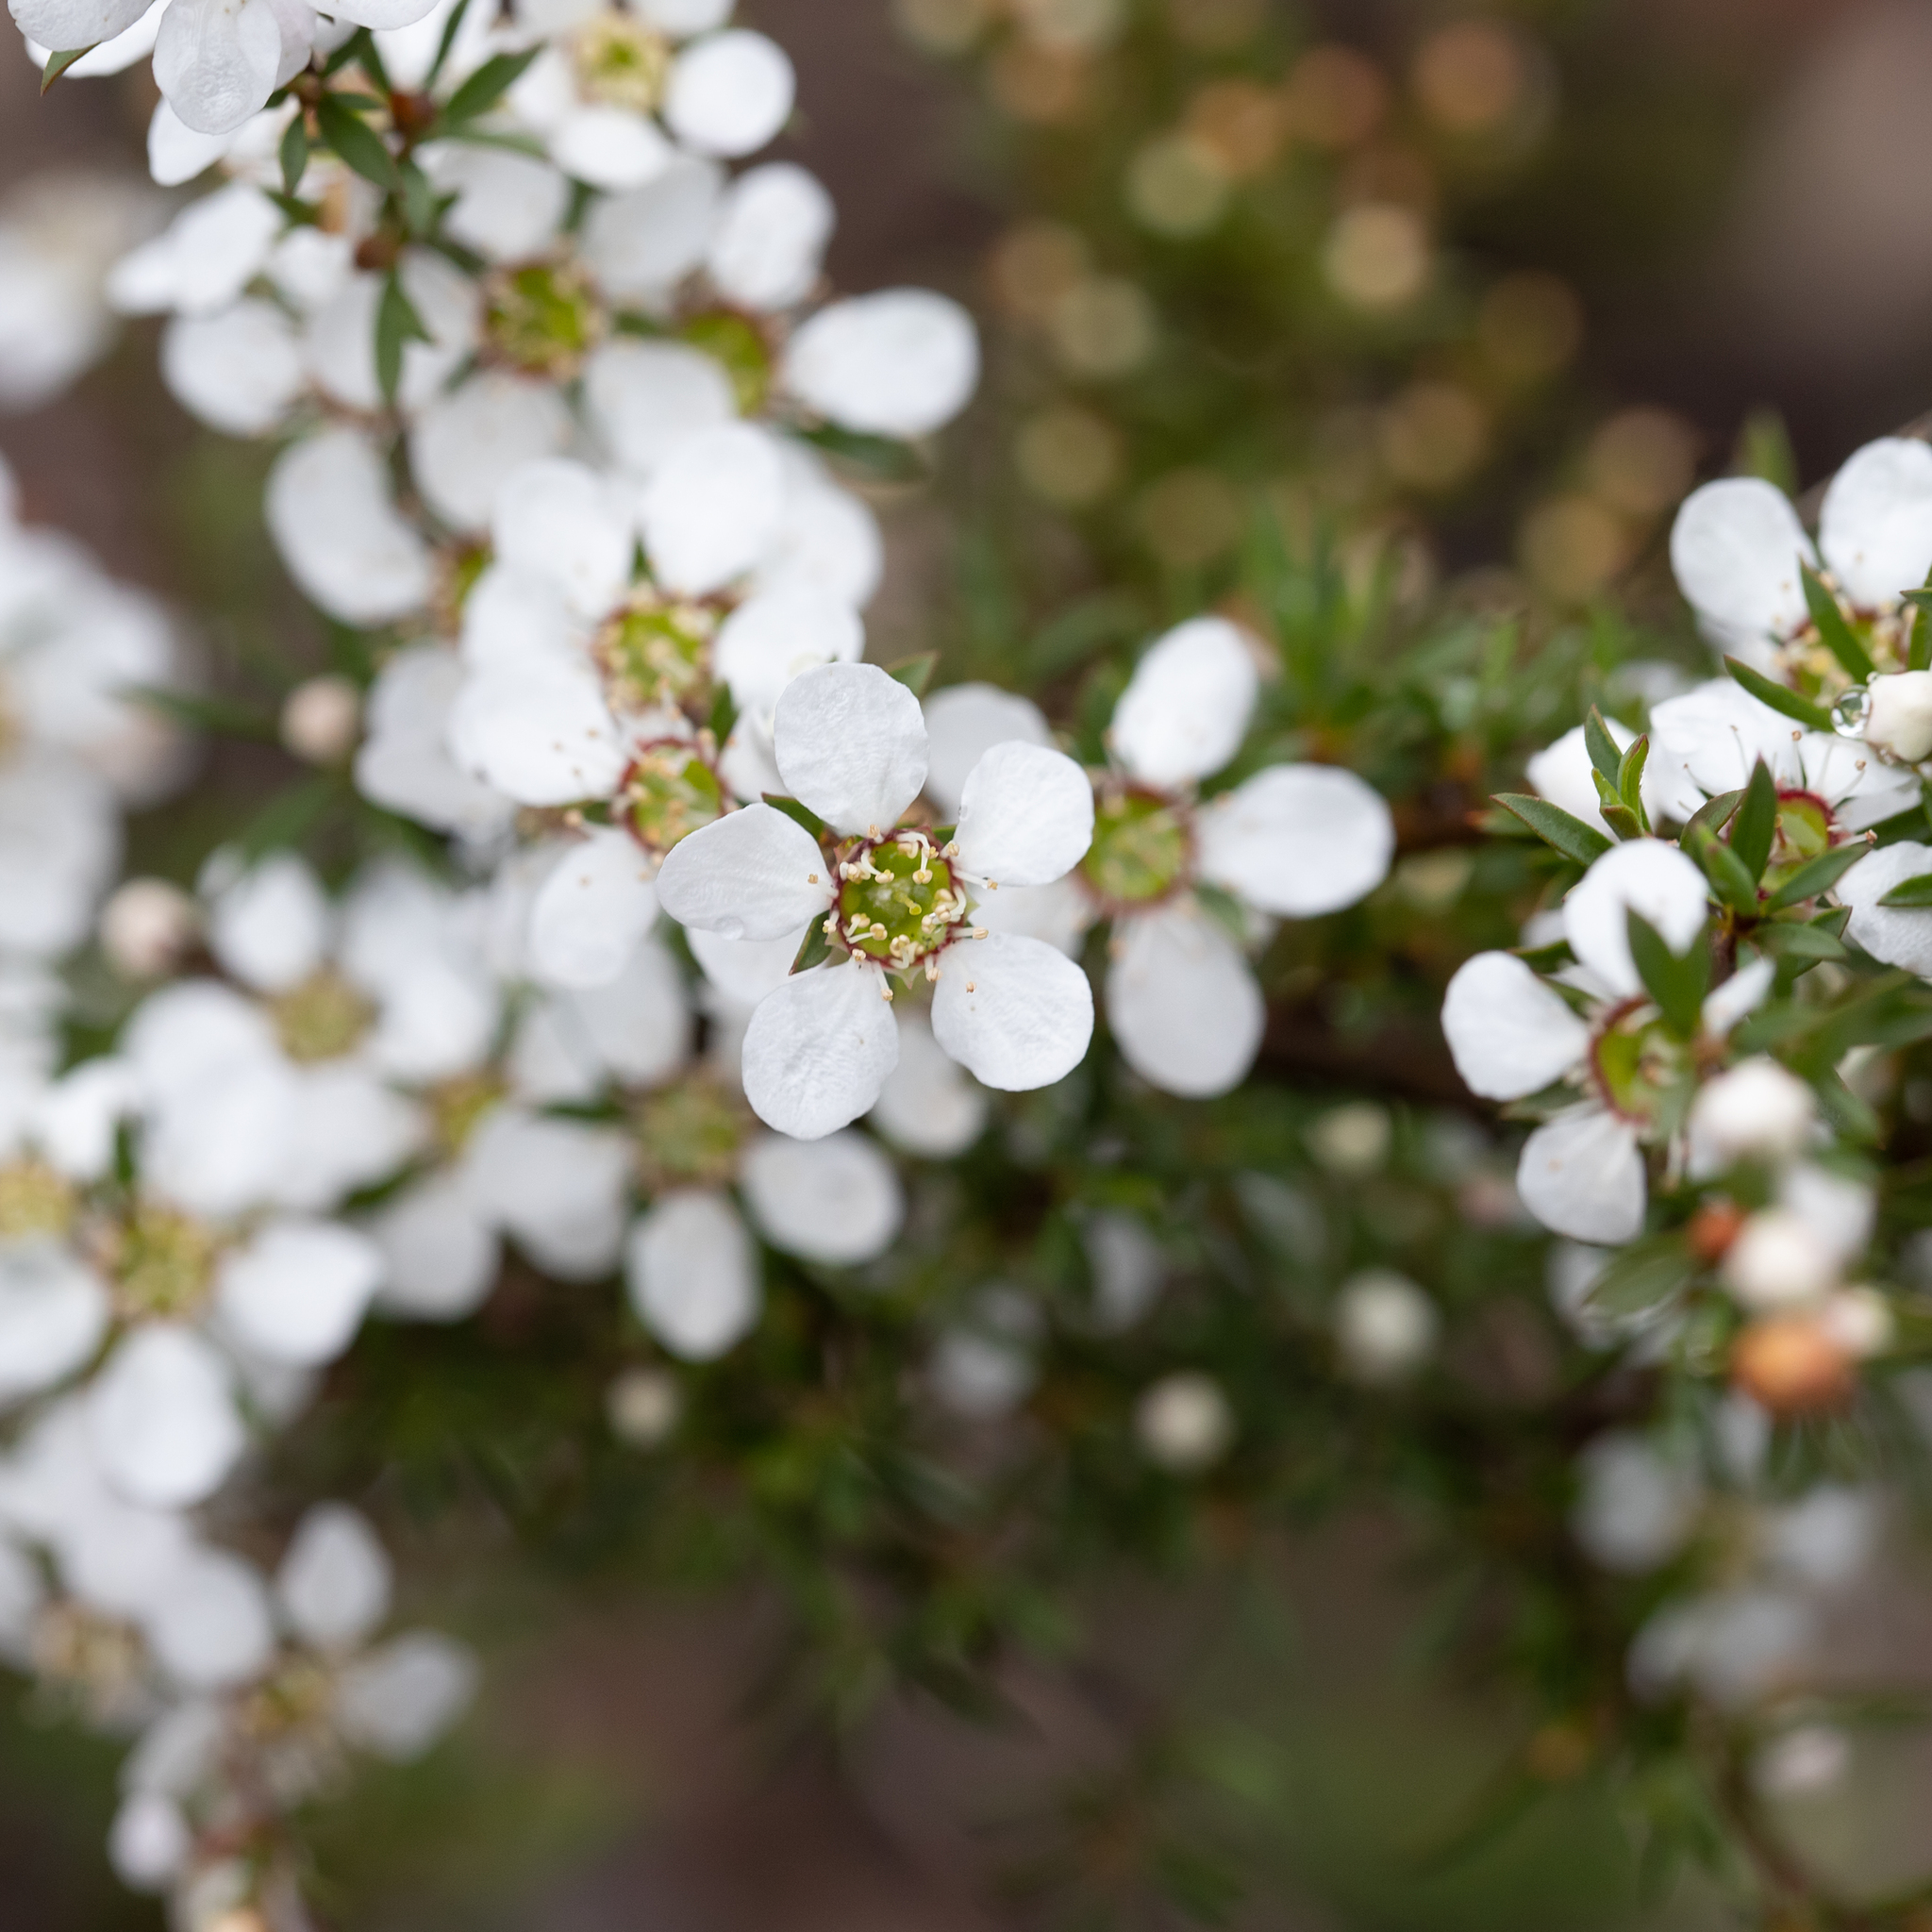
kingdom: Plantae
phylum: Tracheophyta
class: Magnoliopsida
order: Myrtales
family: Myrtaceae
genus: Leptospermum
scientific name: Leptospermum myrsinoides
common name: Heath teatree
